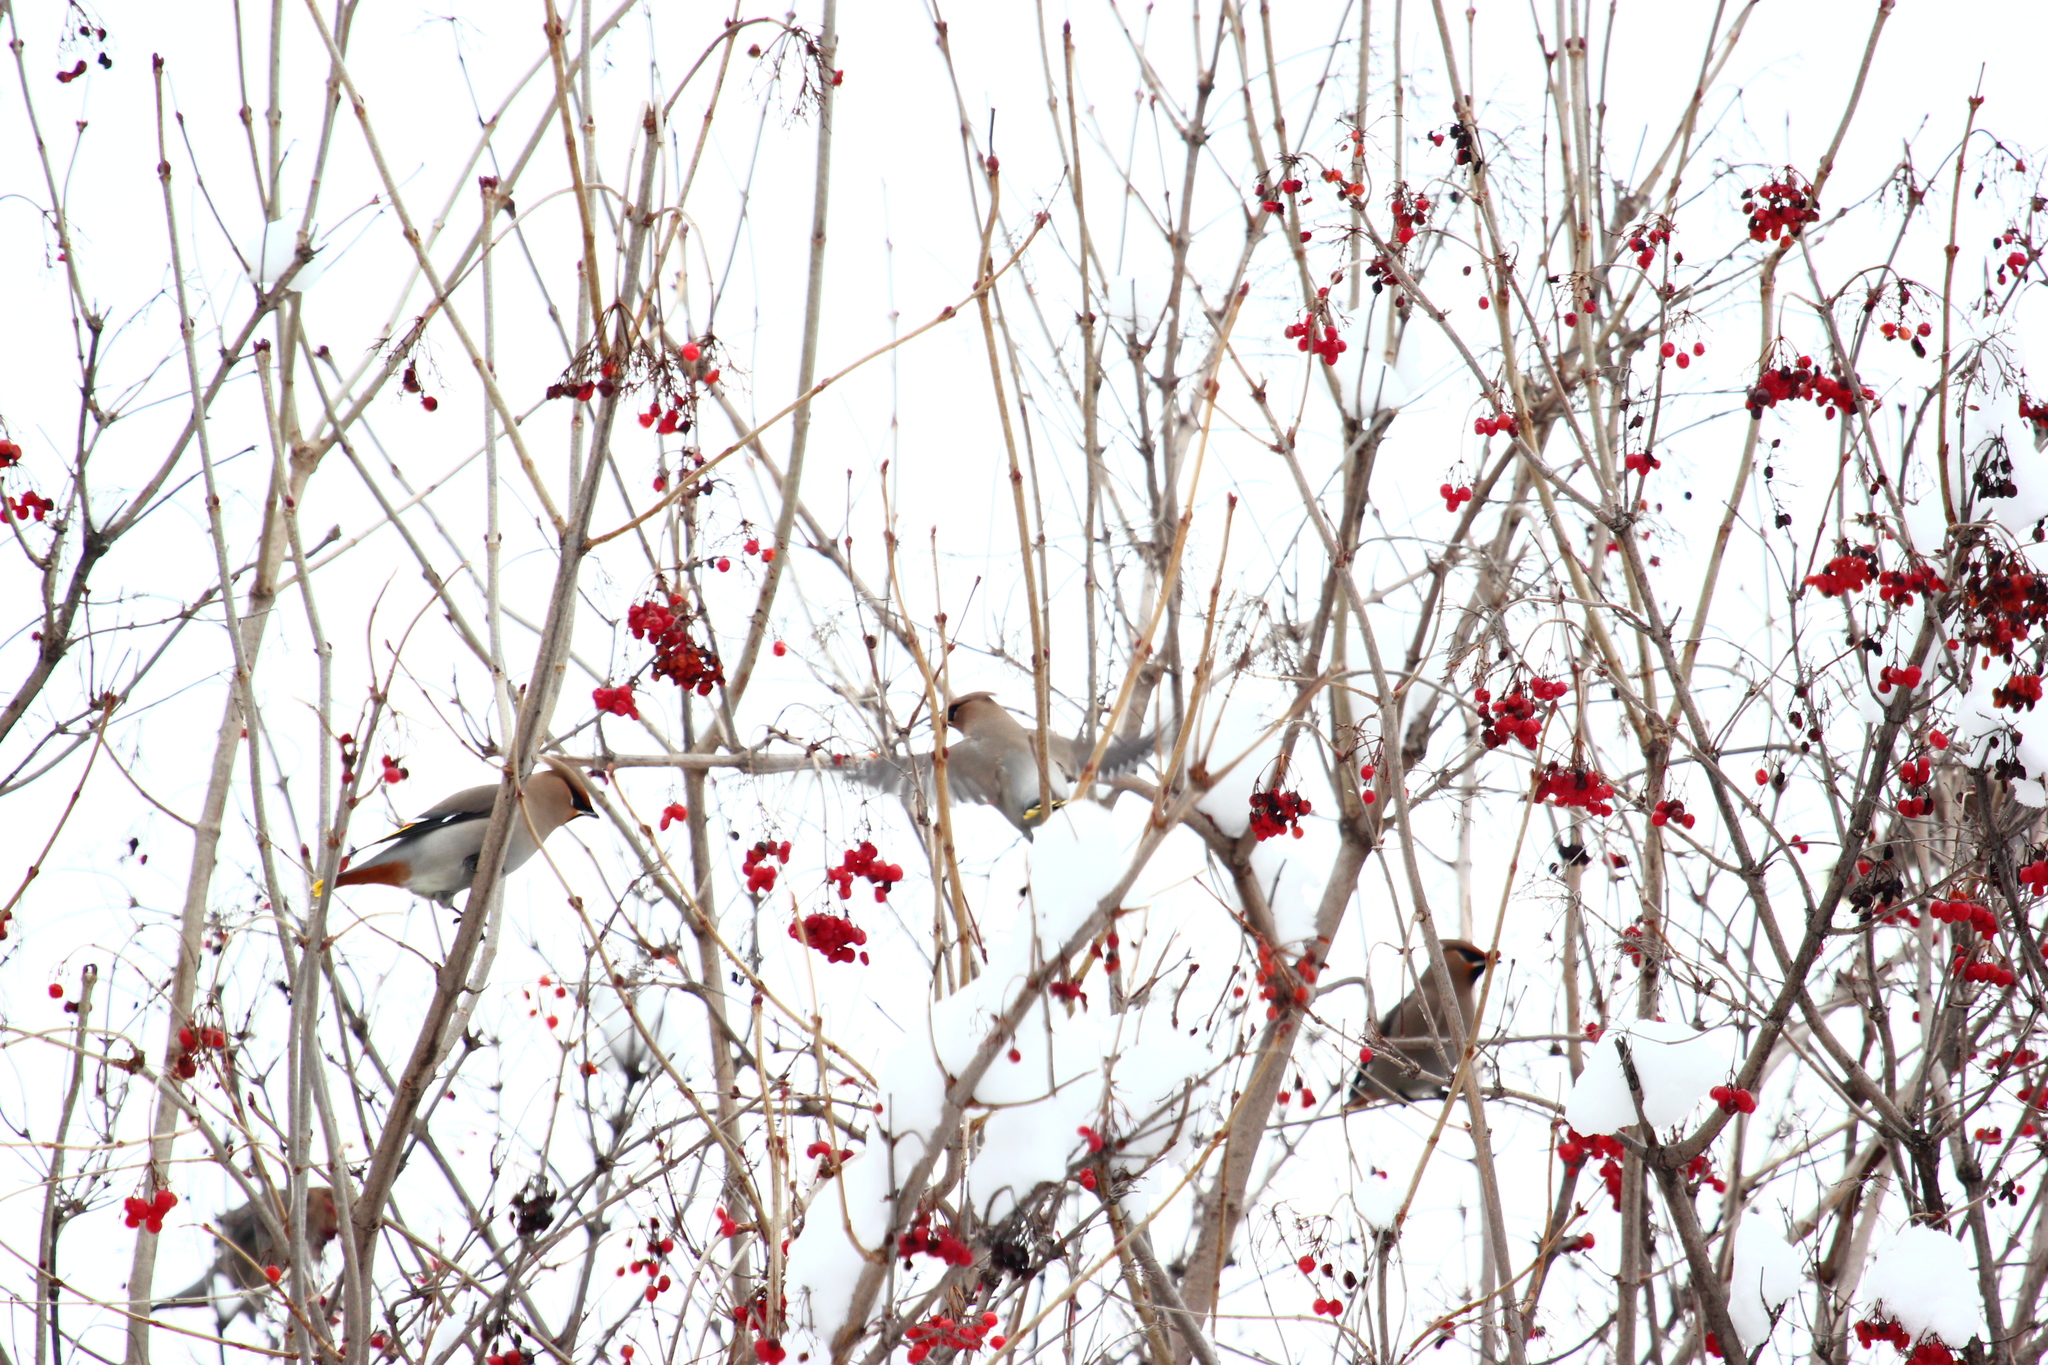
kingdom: Animalia
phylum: Chordata
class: Aves
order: Passeriformes
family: Bombycillidae
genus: Bombycilla
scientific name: Bombycilla garrulus
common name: Bohemian waxwing
